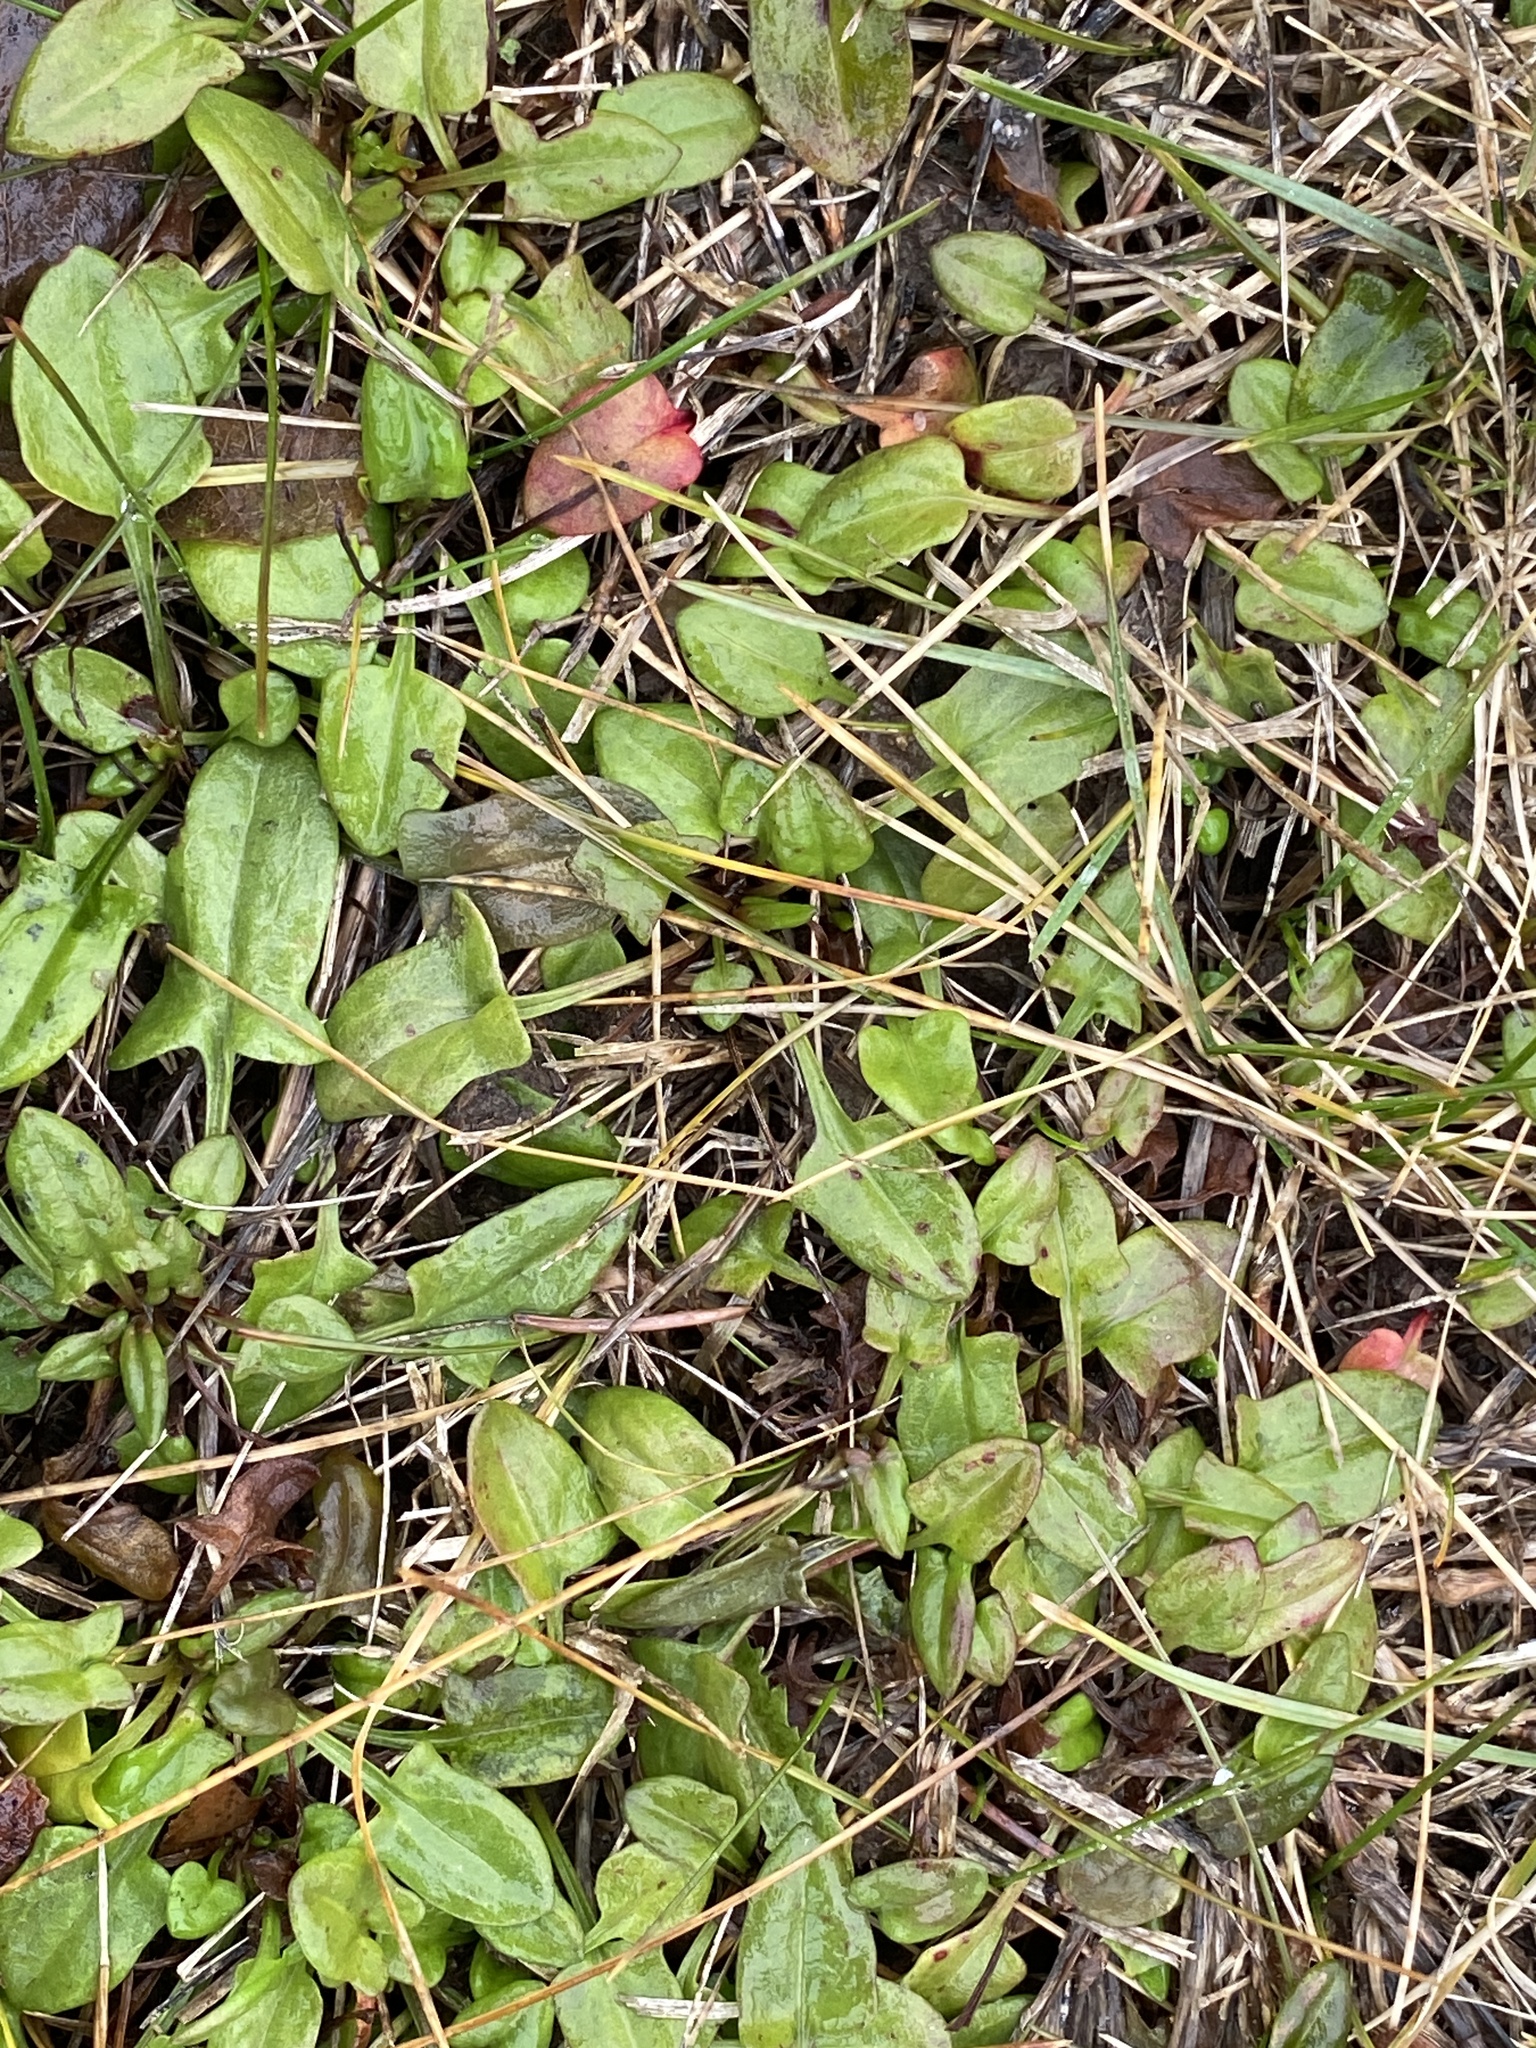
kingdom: Plantae
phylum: Tracheophyta
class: Magnoliopsida
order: Caryophyllales
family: Polygonaceae
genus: Rumex
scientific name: Rumex acetosella
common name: Common sheep sorrel
